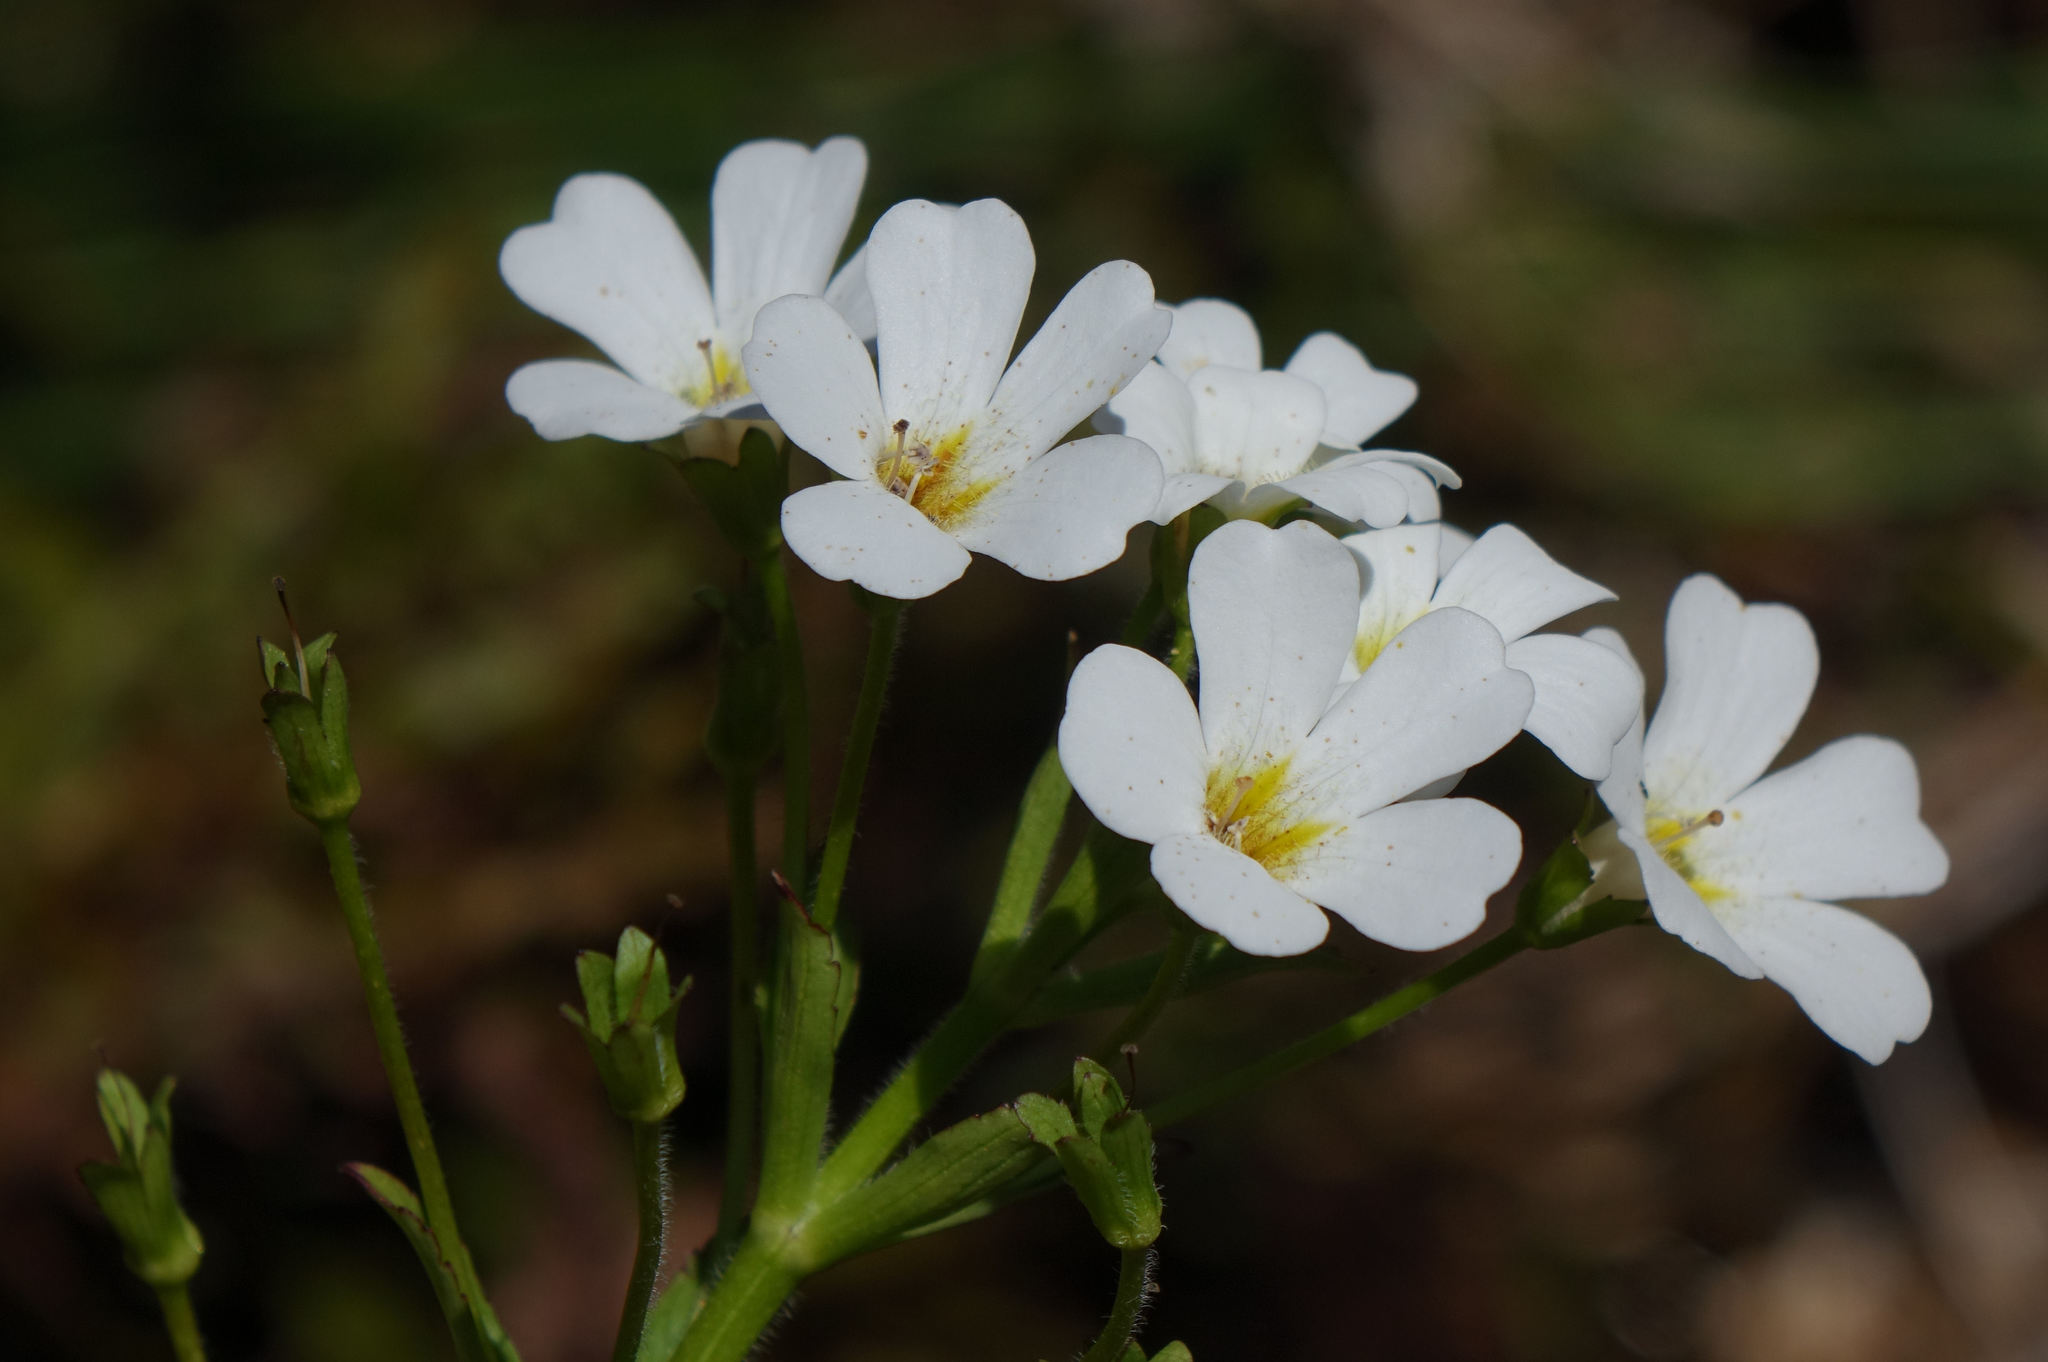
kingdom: Plantae
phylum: Tracheophyta
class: Magnoliopsida
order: Lamiales
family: Plantaginaceae
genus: Ourisia
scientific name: Ourisia calycina
